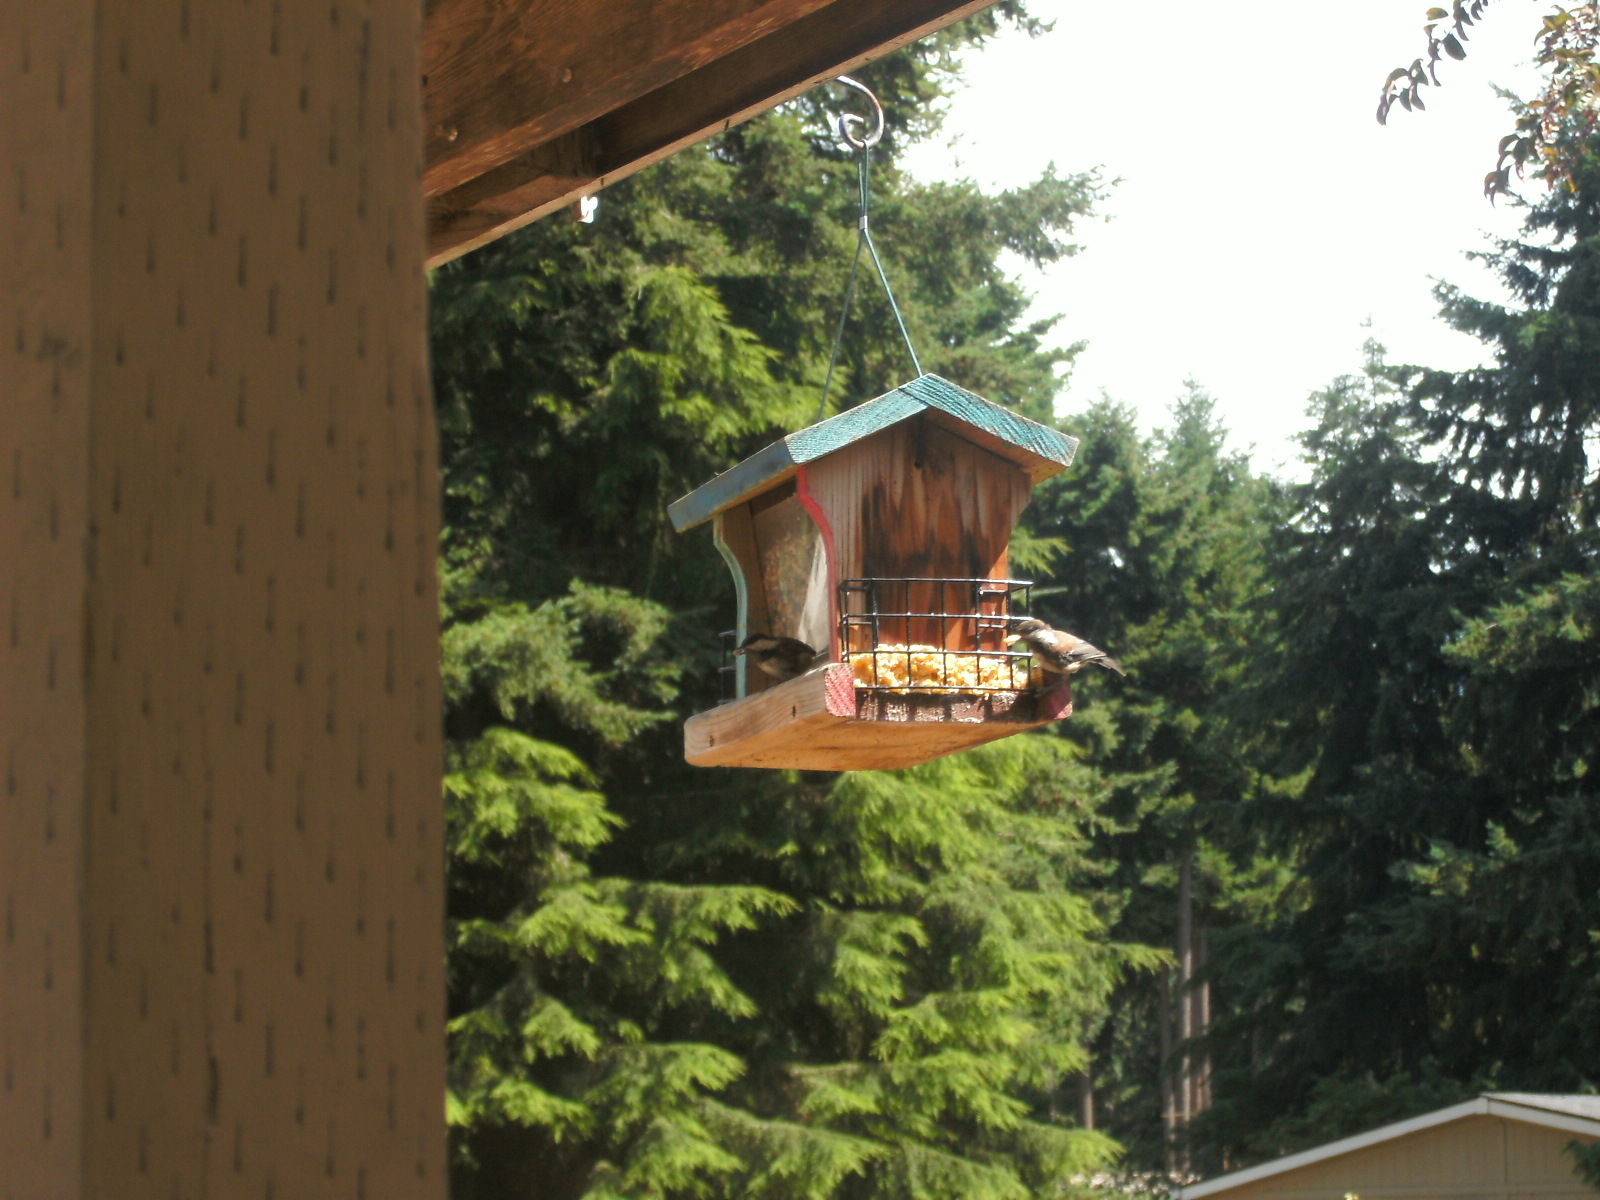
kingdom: Animalia
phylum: Chordata
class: Aves
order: Passeriformes
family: Paridae
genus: Poecile
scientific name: Poecile rufescens
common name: Chestnut-backed chickadee
